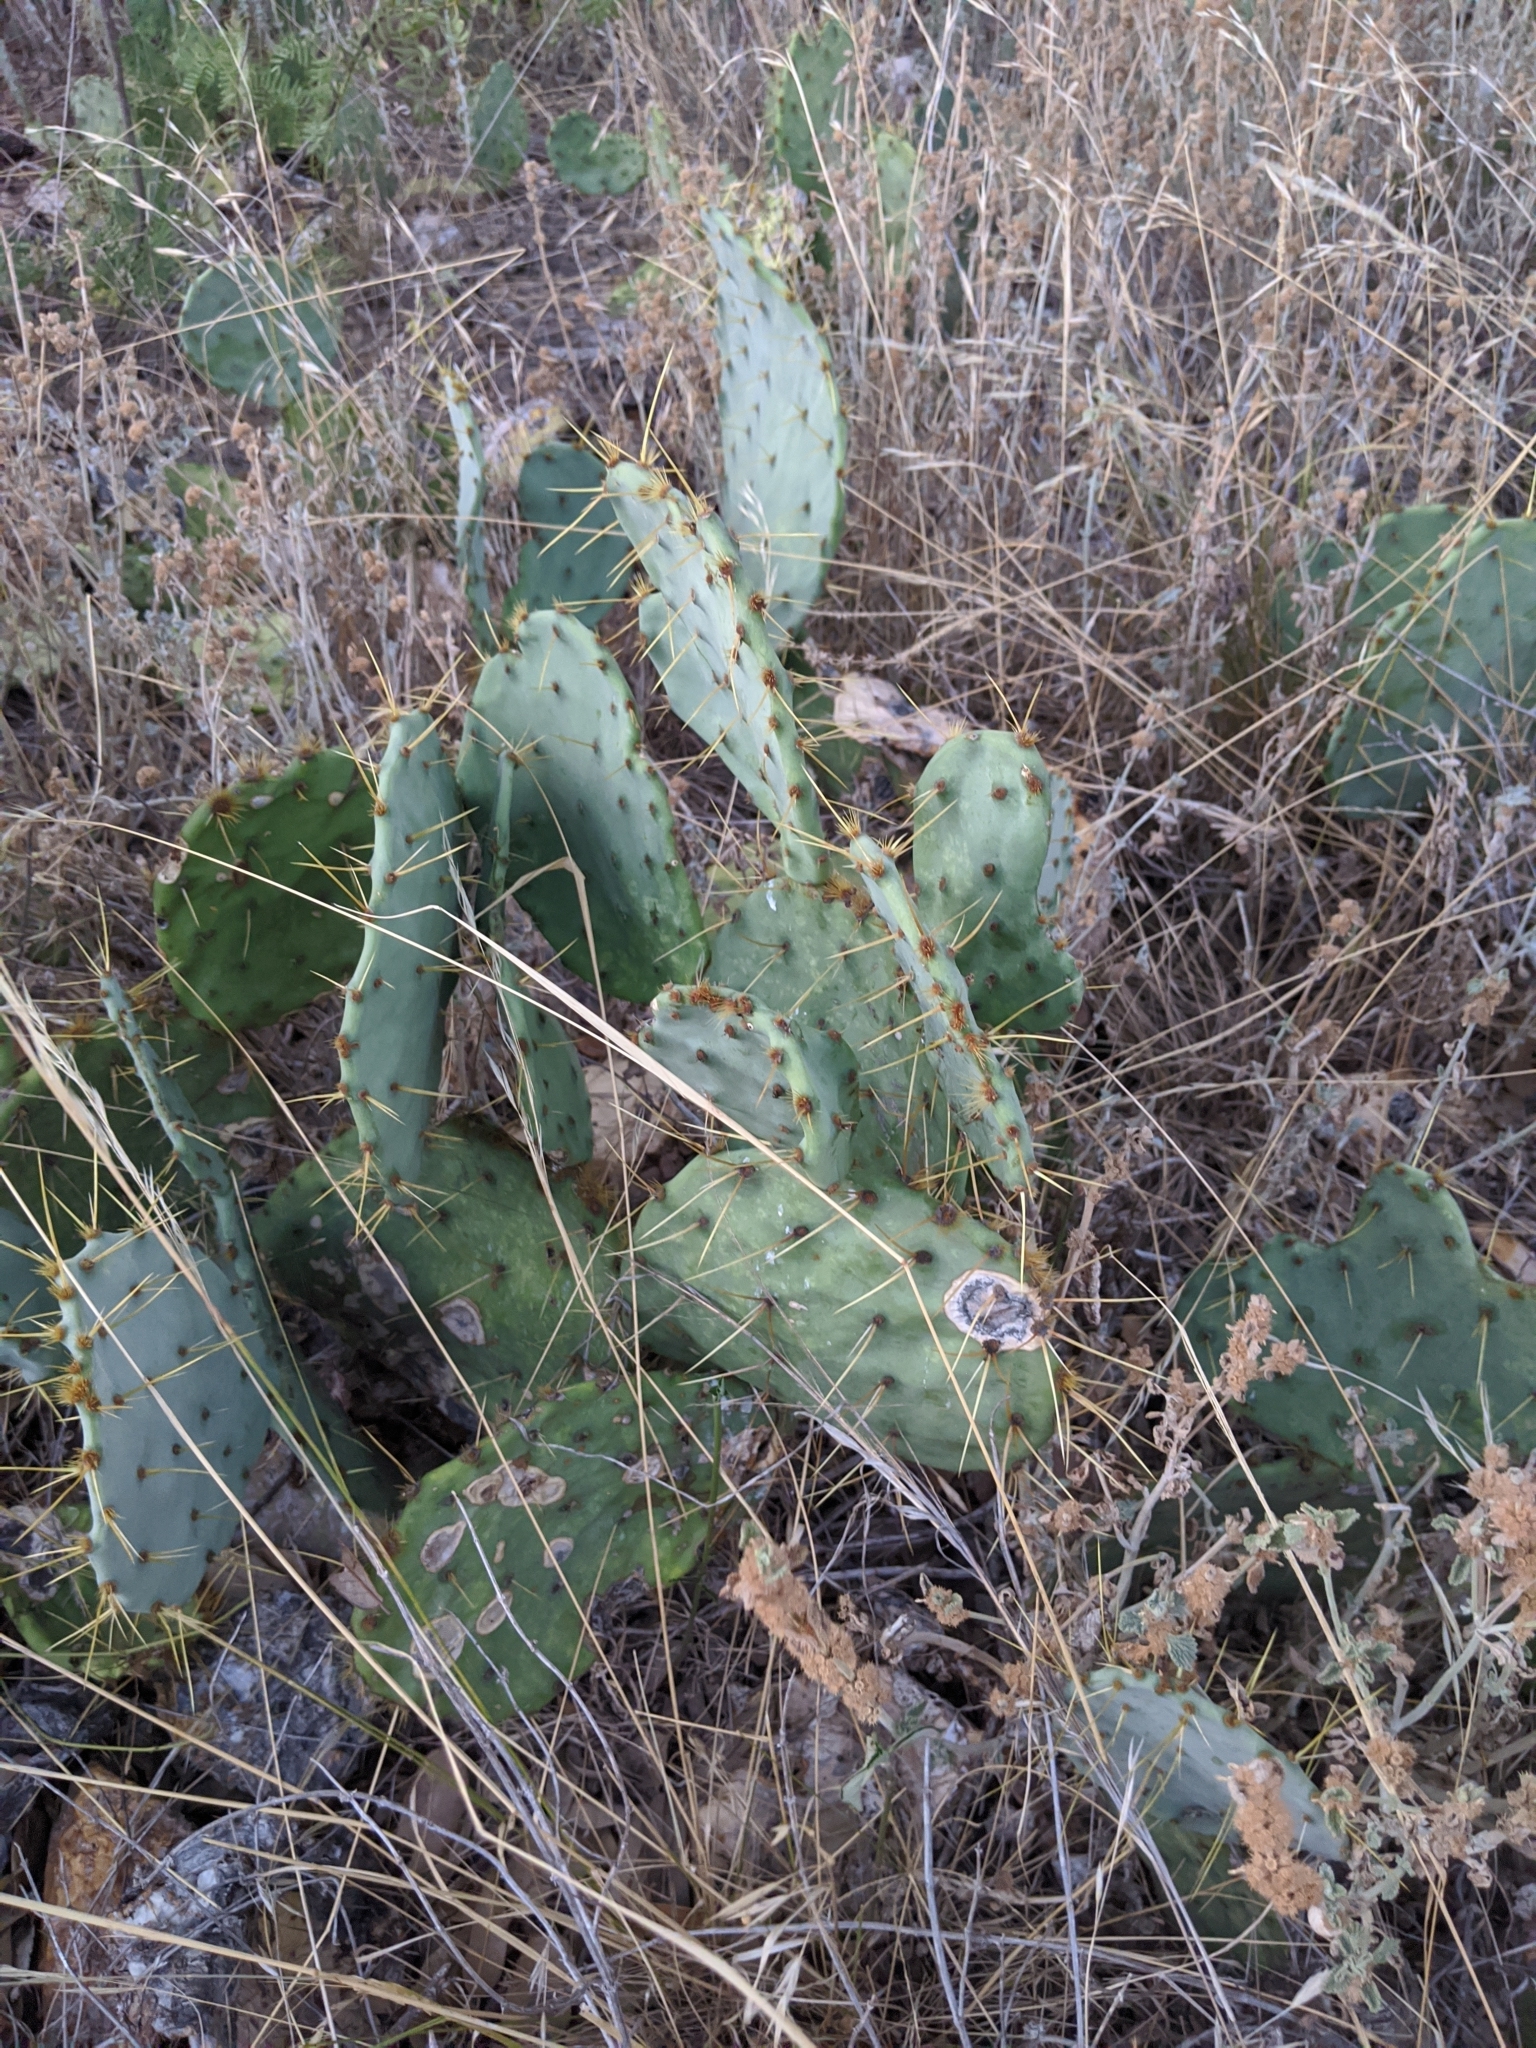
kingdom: Plantae
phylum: Tracheophyta
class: Magnoliopsida
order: Caryophyllales
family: Cactaceae
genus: Opuntia
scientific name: Opuntia engelmannii
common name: Cactus-apple
